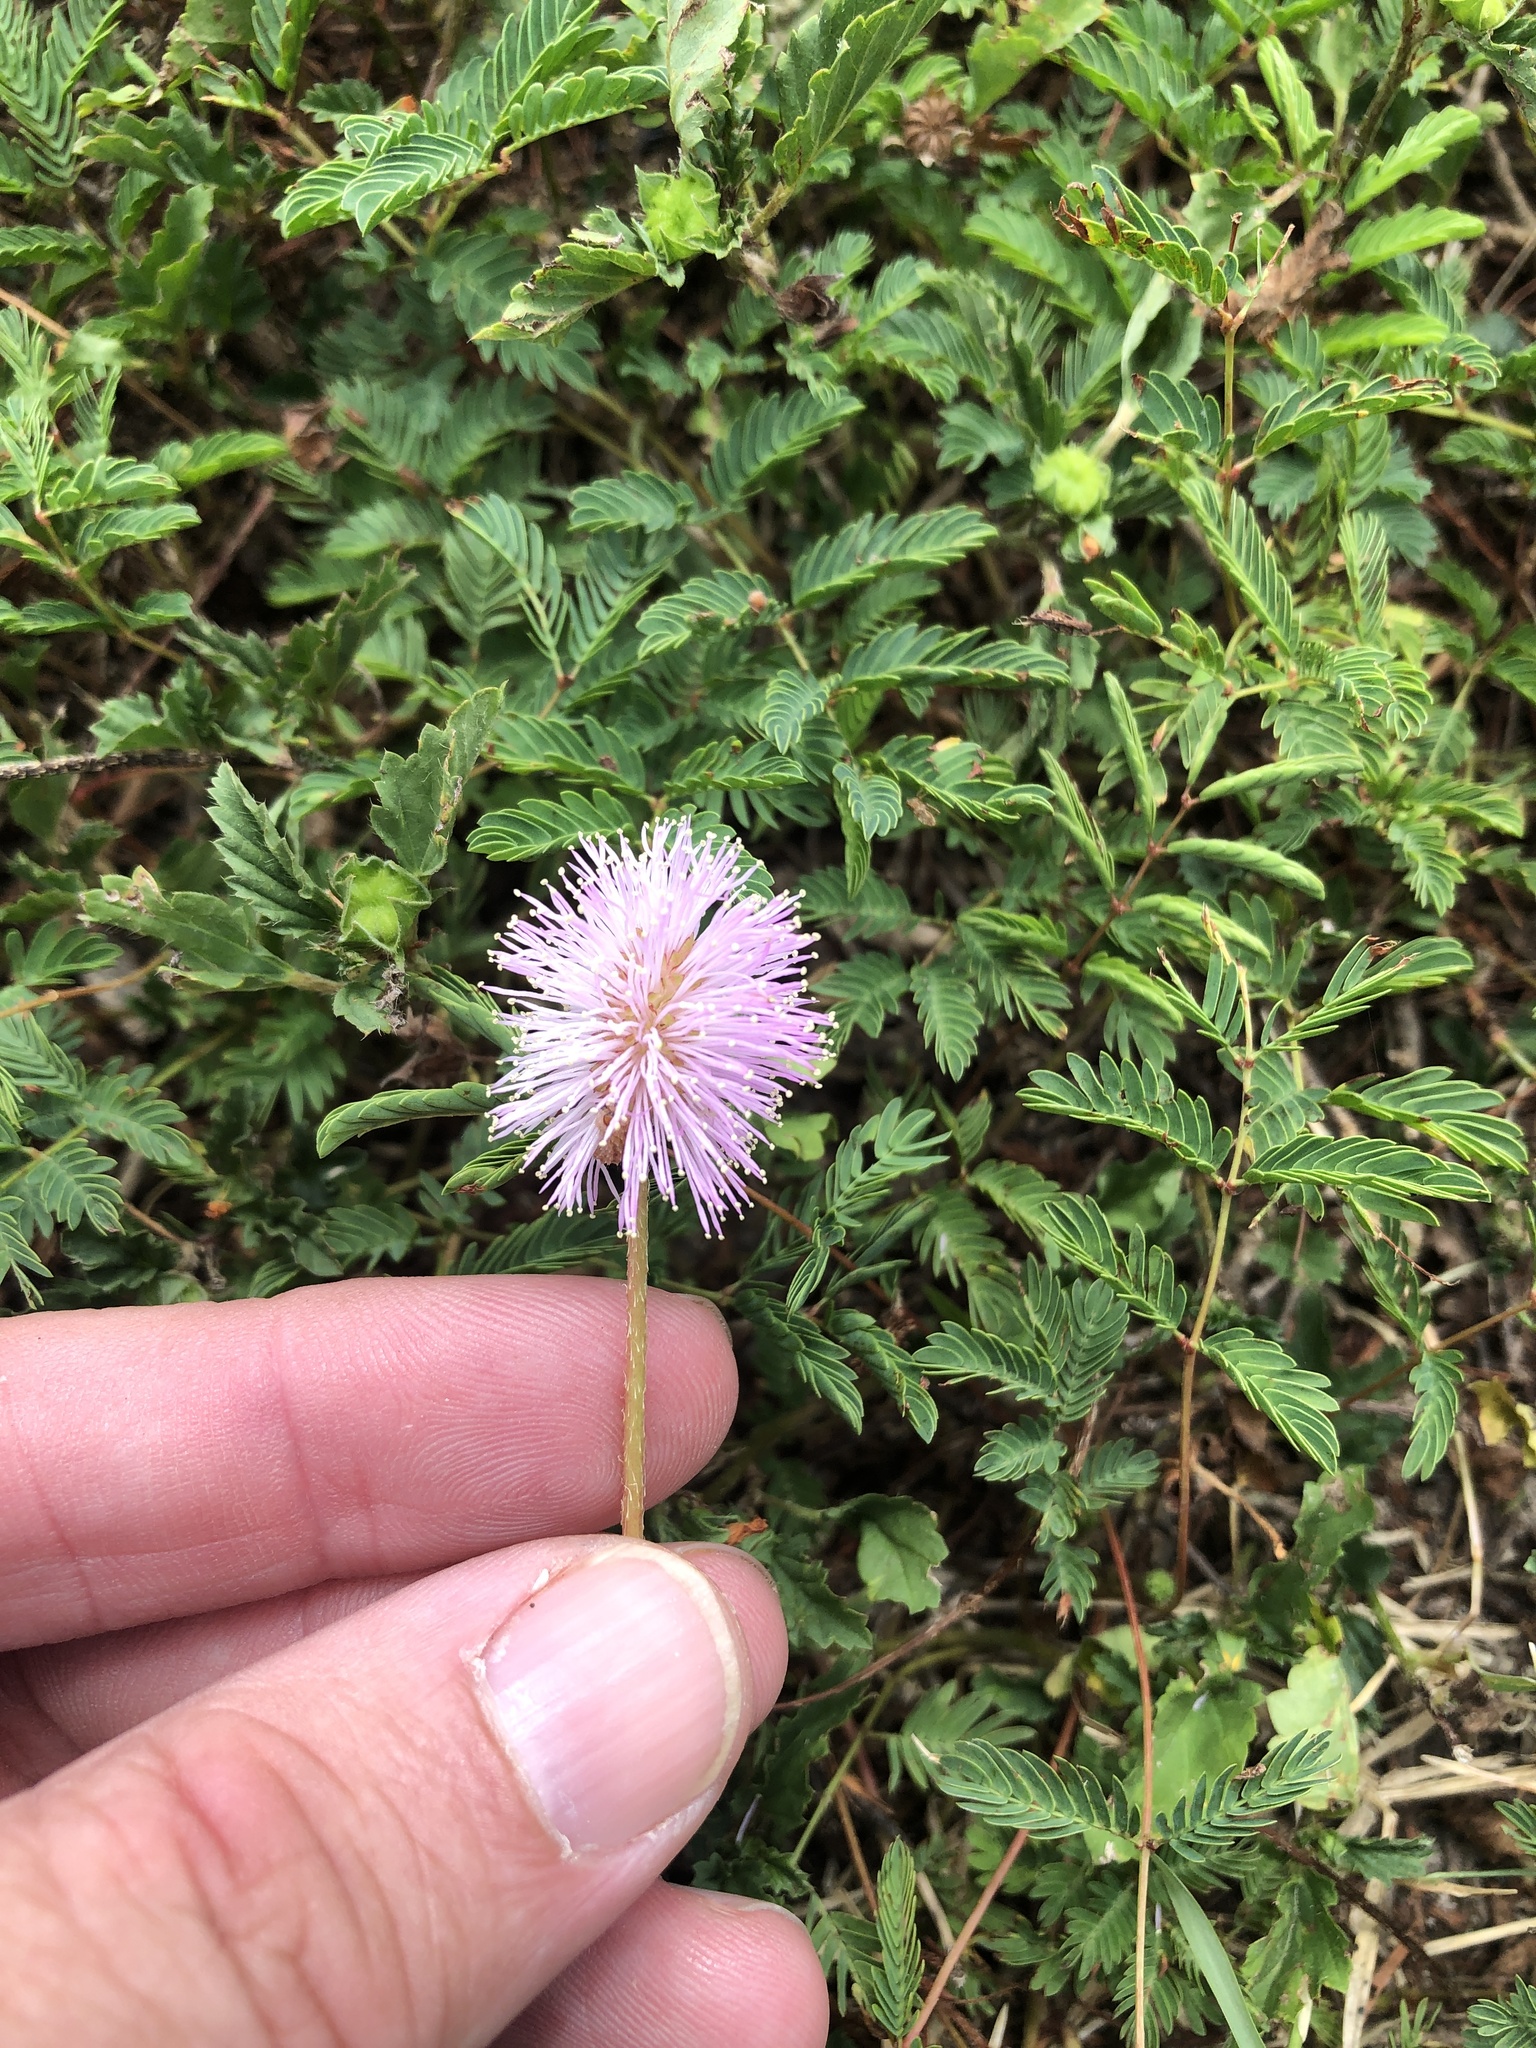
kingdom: Plantae
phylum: Tracheophyta
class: Magnoliopsida
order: Fabales
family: Fabaceae
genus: Mimosa
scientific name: Mimosa strigillosa
